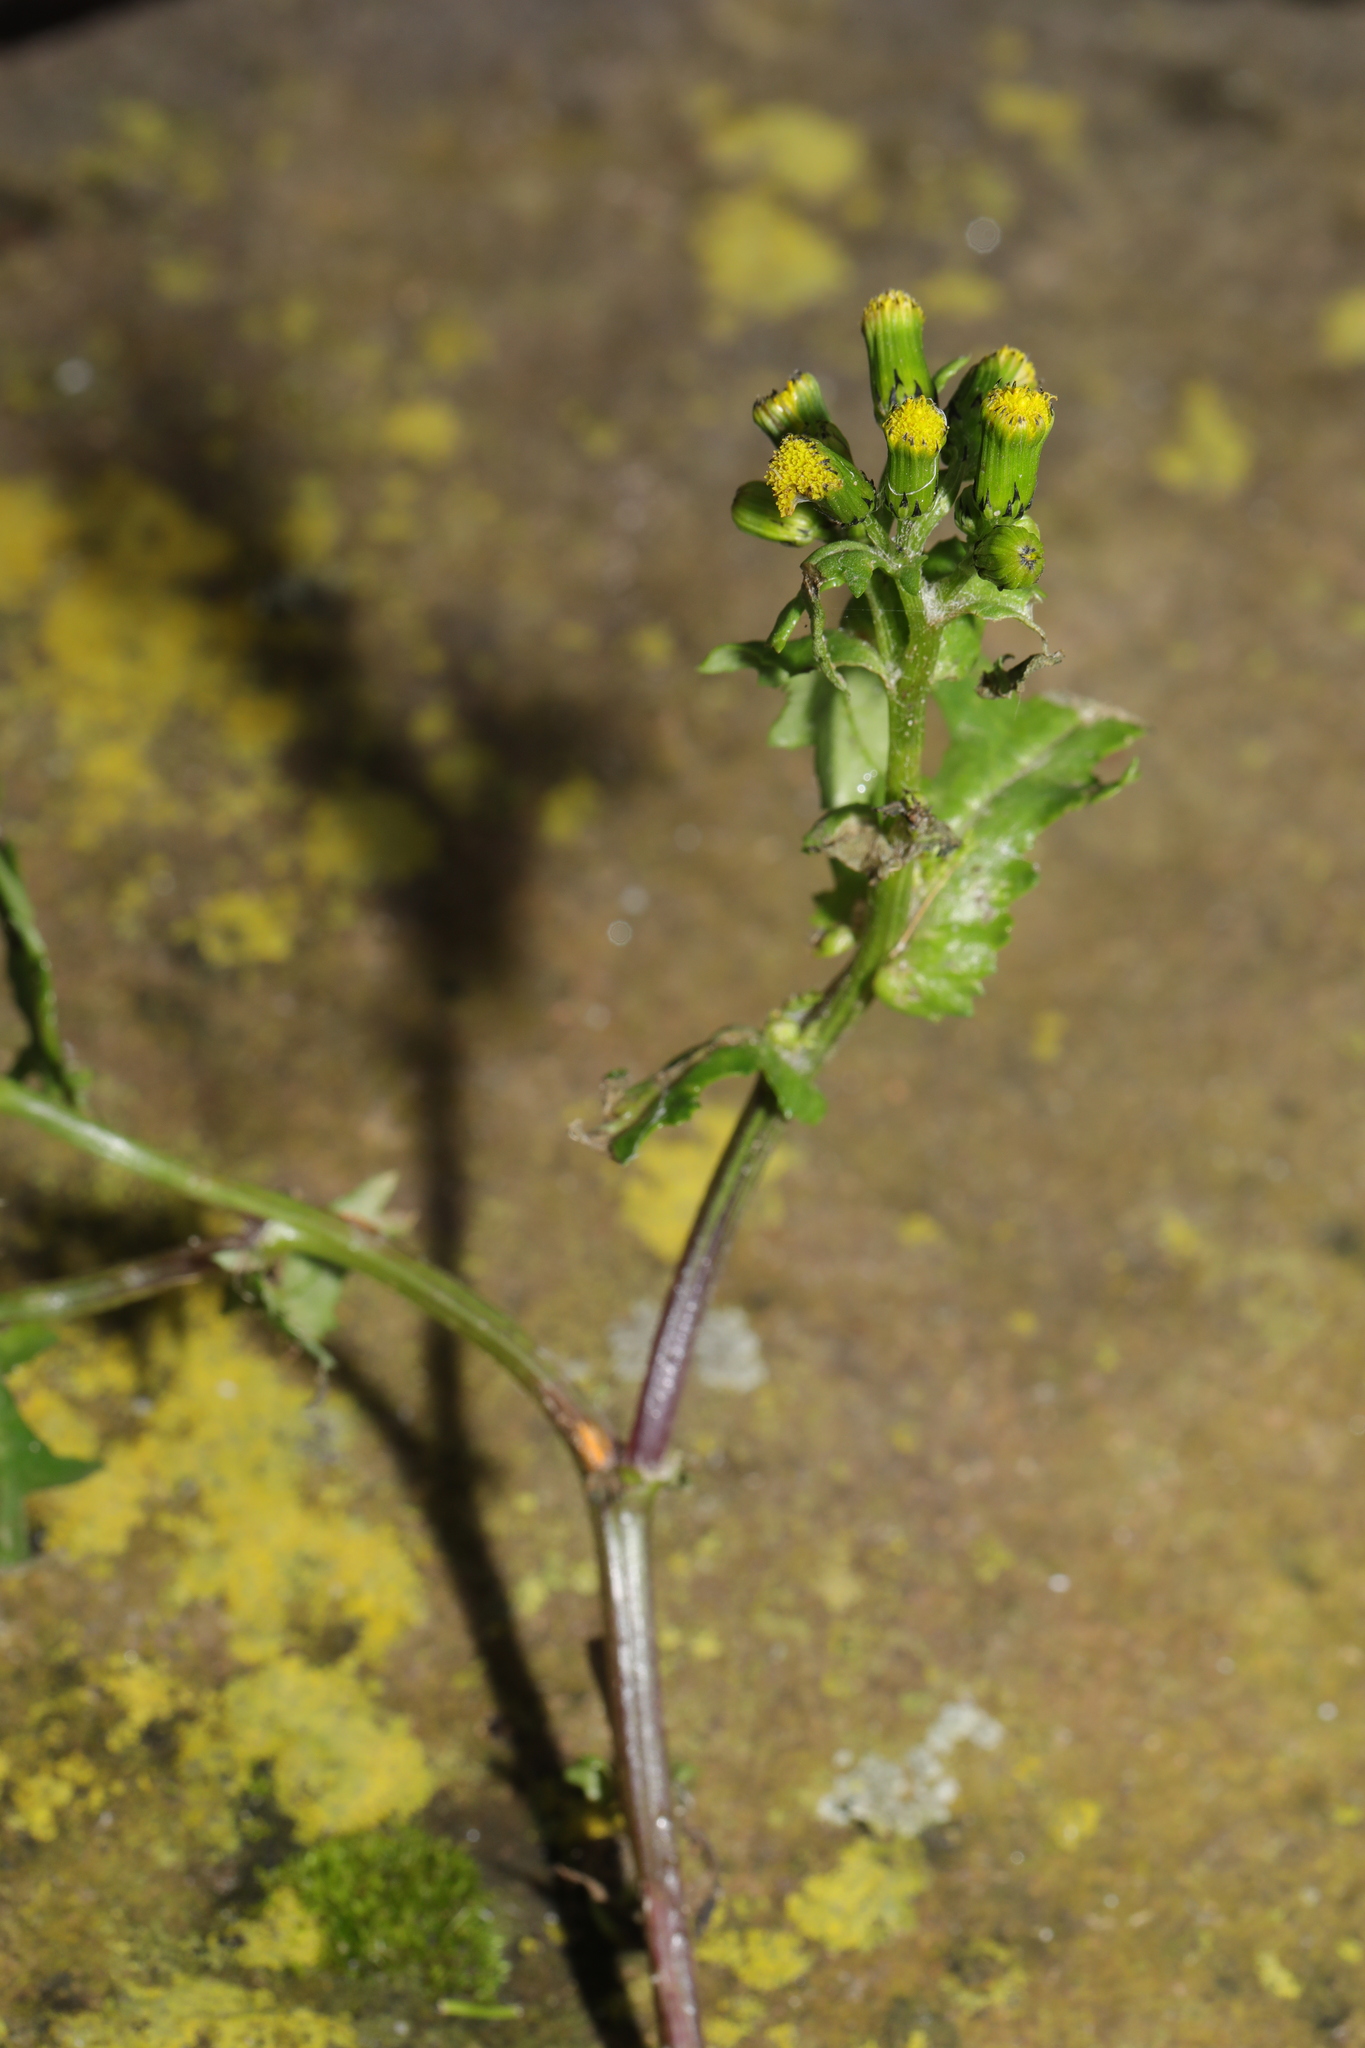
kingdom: Plantae
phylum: Tracheophyta
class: Magnoliopsida
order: Asterales
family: Asteraceae
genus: Senecio
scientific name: Senecio vulgaris
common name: Old-man-in-the-spring
